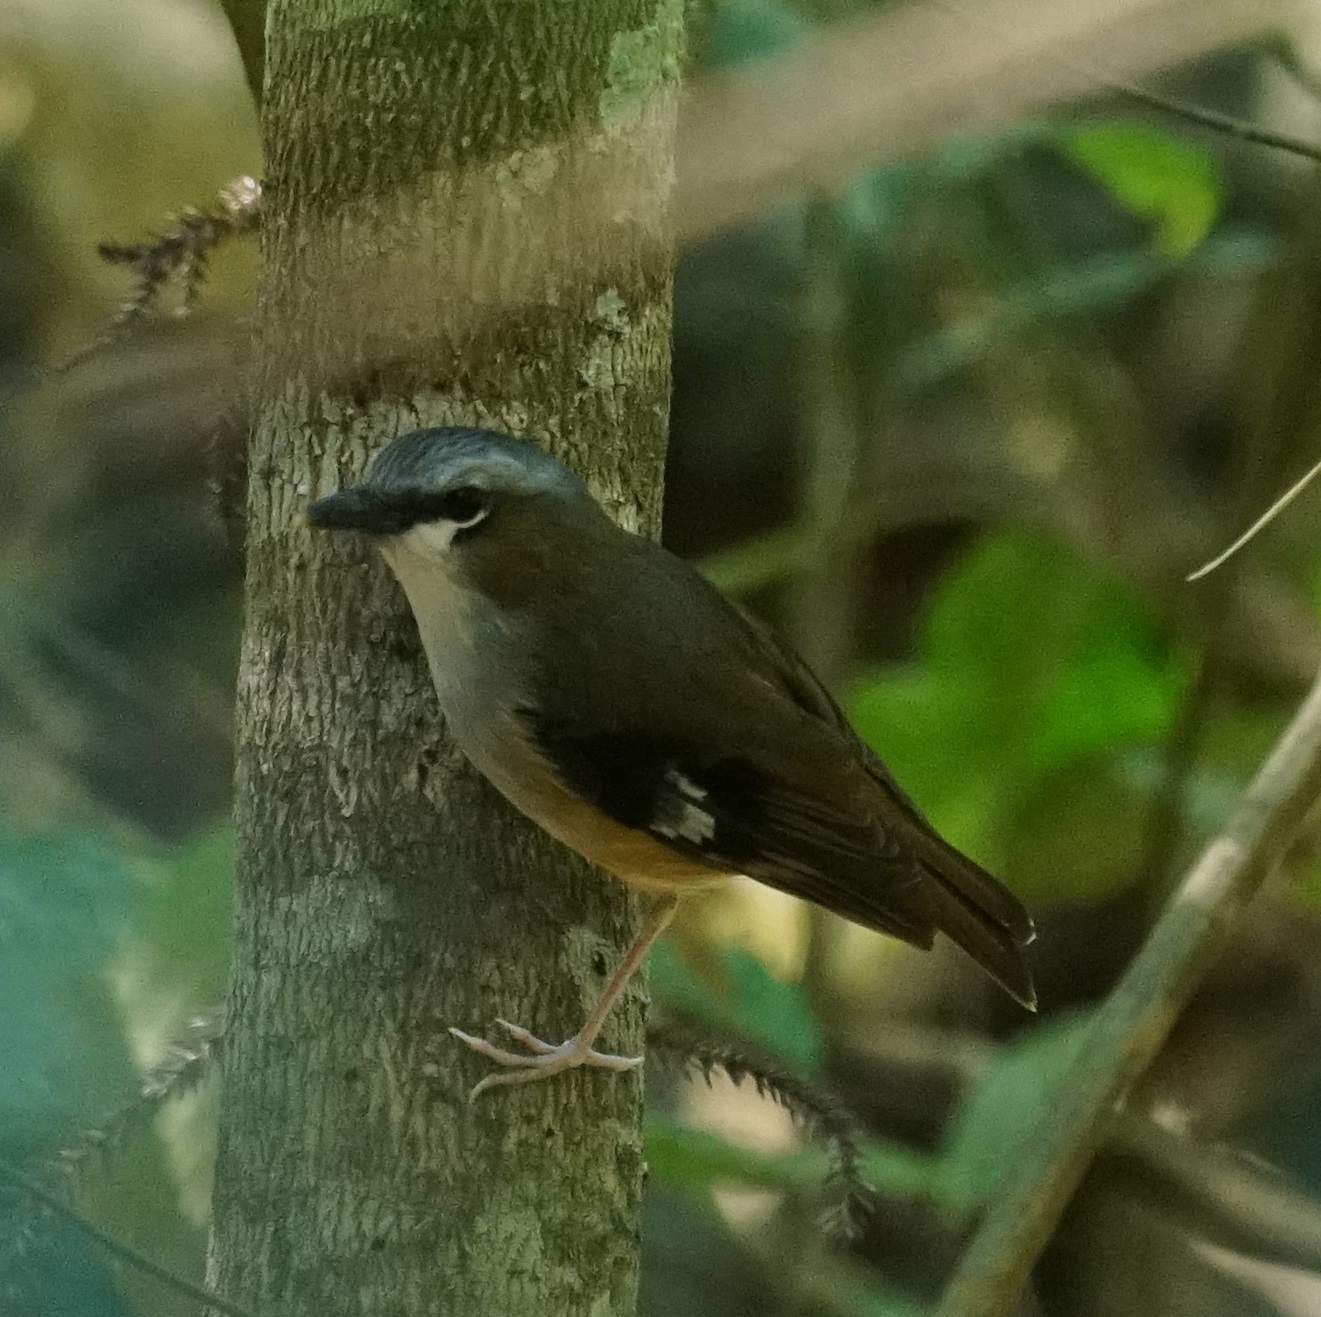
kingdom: Animalia
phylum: Chordata
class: Aves
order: Passeriformes
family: Petroicidae
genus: Heteromyias
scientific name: Heteromyias cinereifrons
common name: Grey-headed robin
